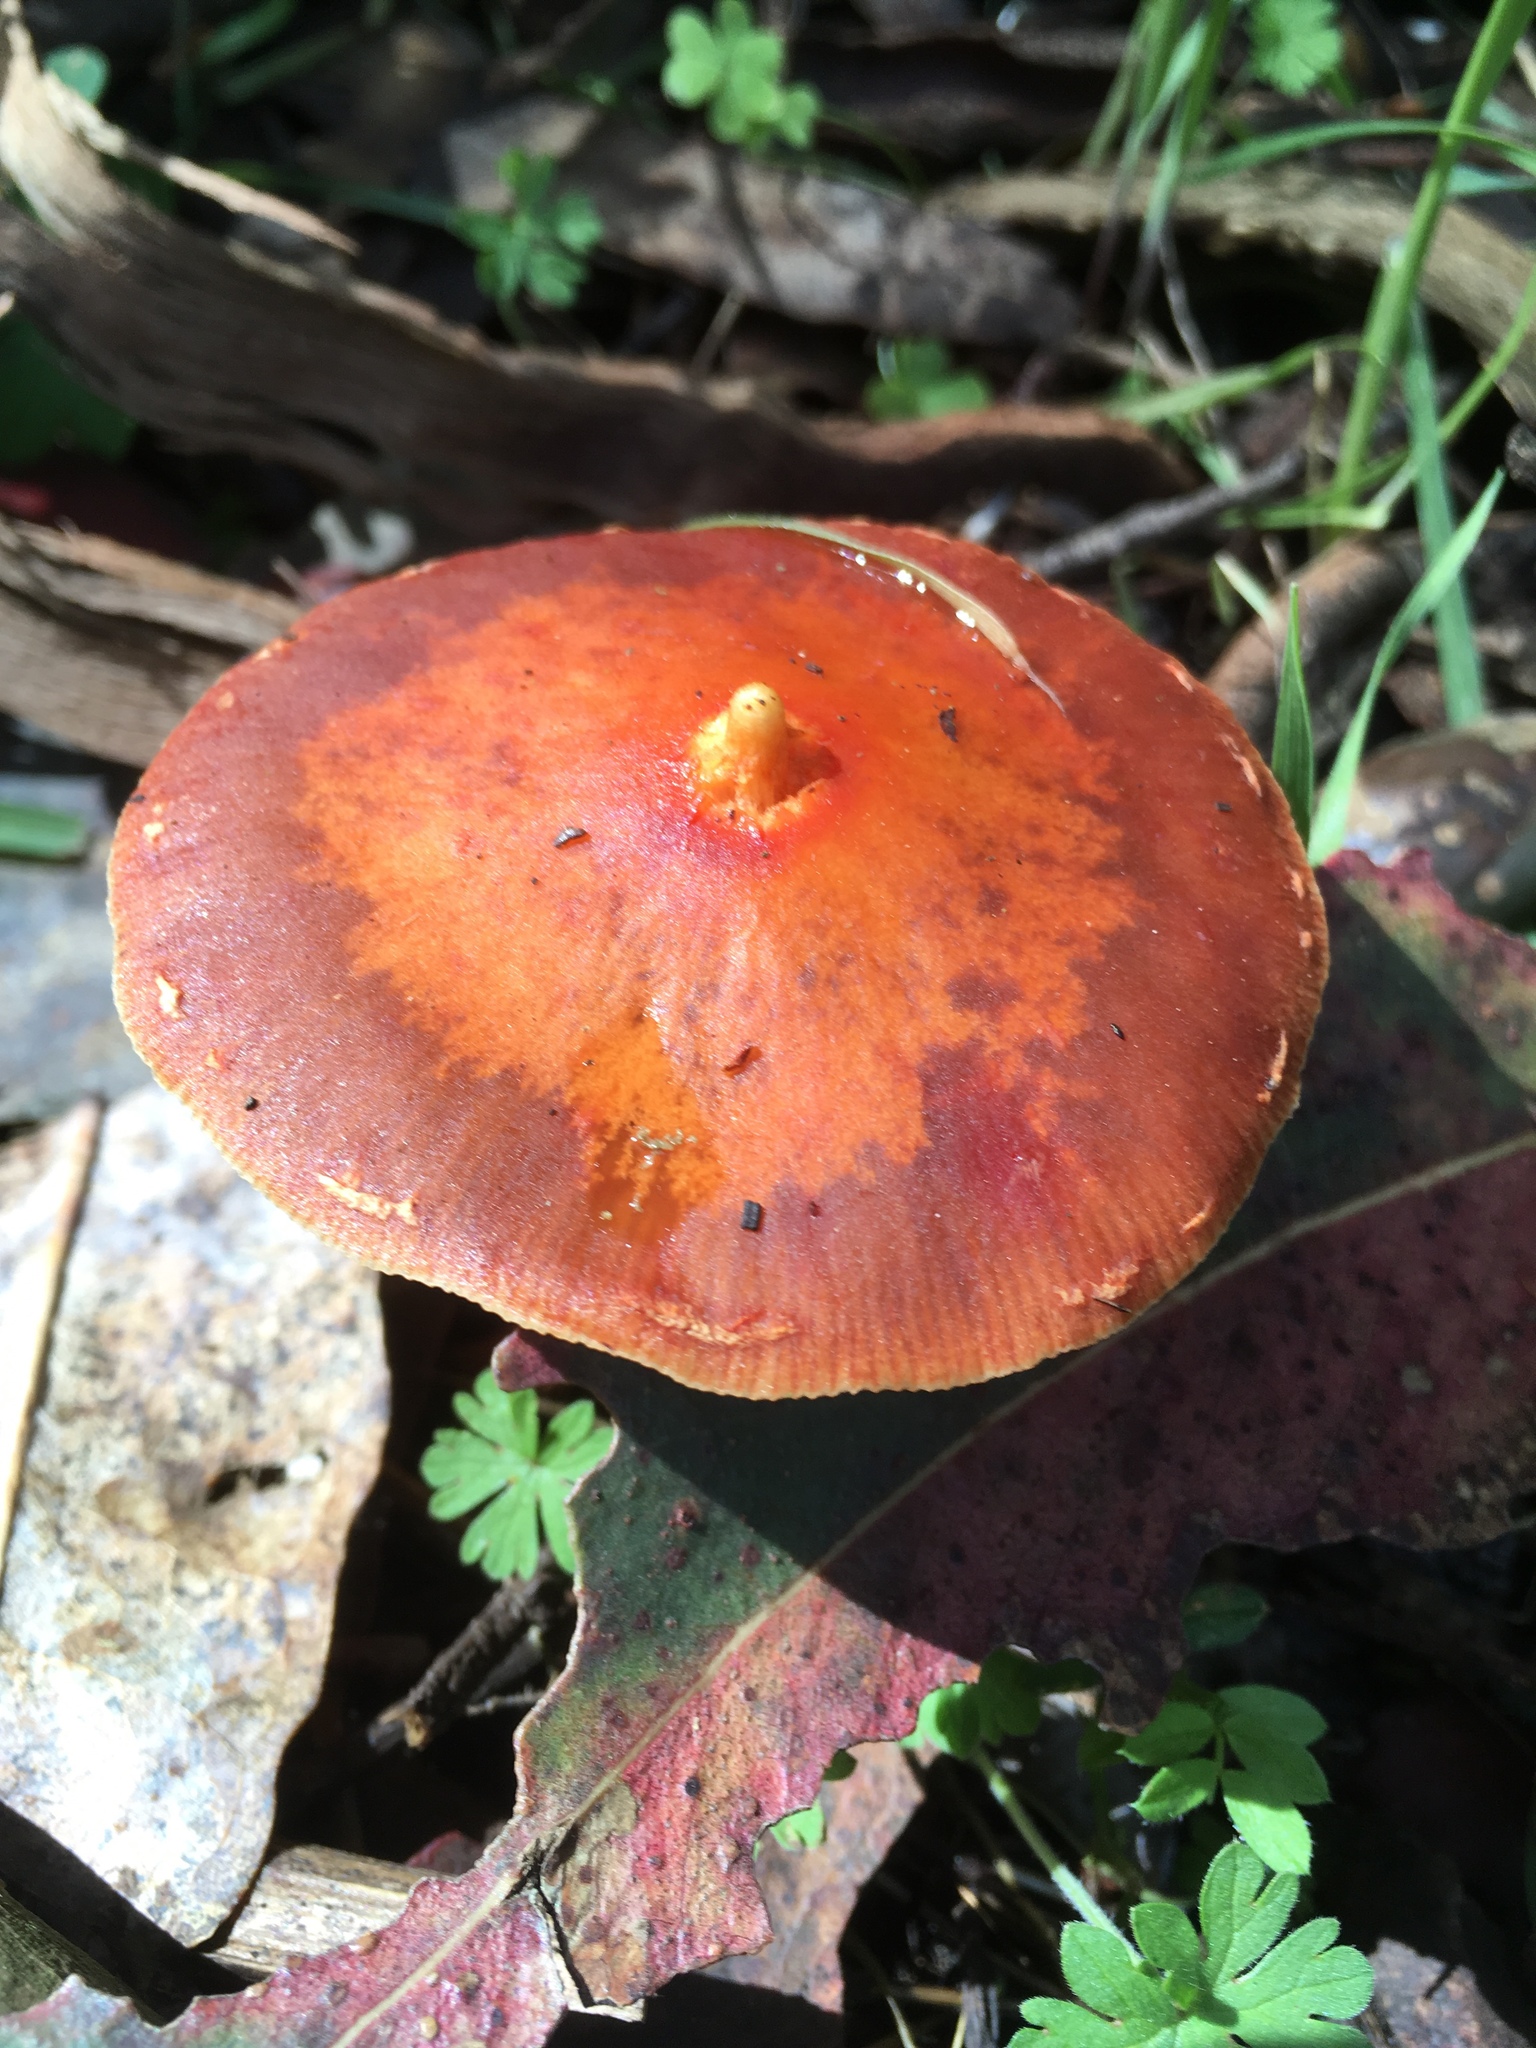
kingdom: Fungi
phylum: Basidiomycota
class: Agaricomycetes
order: Agaricales
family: Strophariaceae
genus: Leratiomyces
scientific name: Leratiomyces ceres
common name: Redlead roundhead
